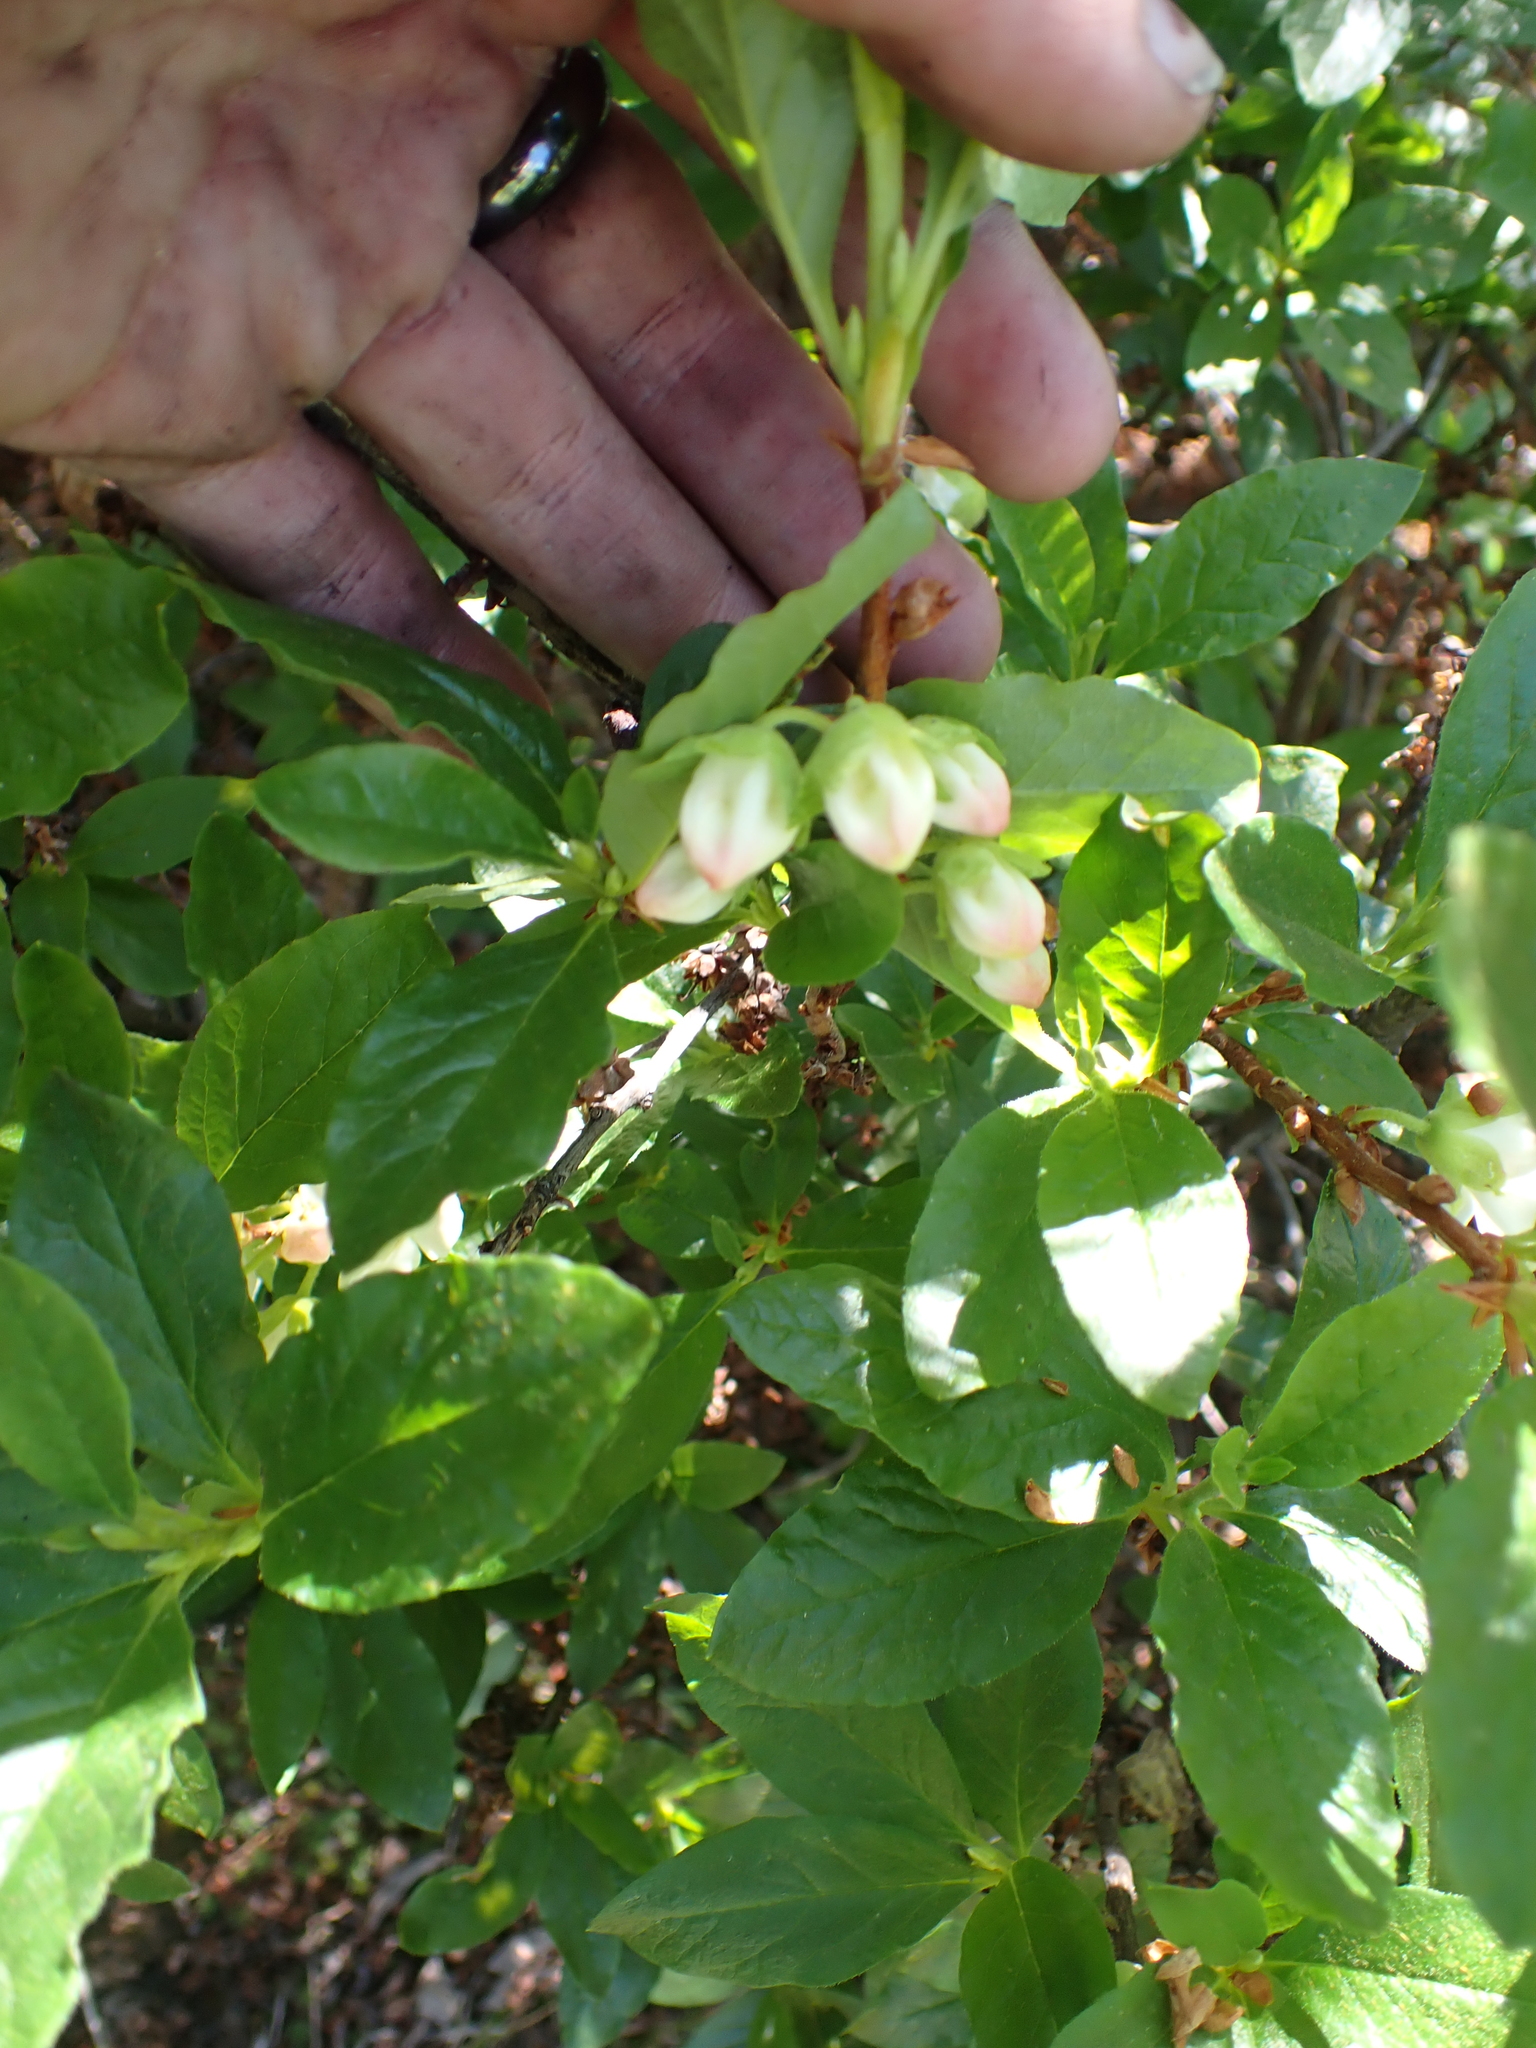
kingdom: Plantae
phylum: Tracheophyta
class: Magnoliopsida
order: Ericales
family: Ericaceae
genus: Rhododendron
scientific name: Rhododendron albiflorum
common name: White rhododendron
